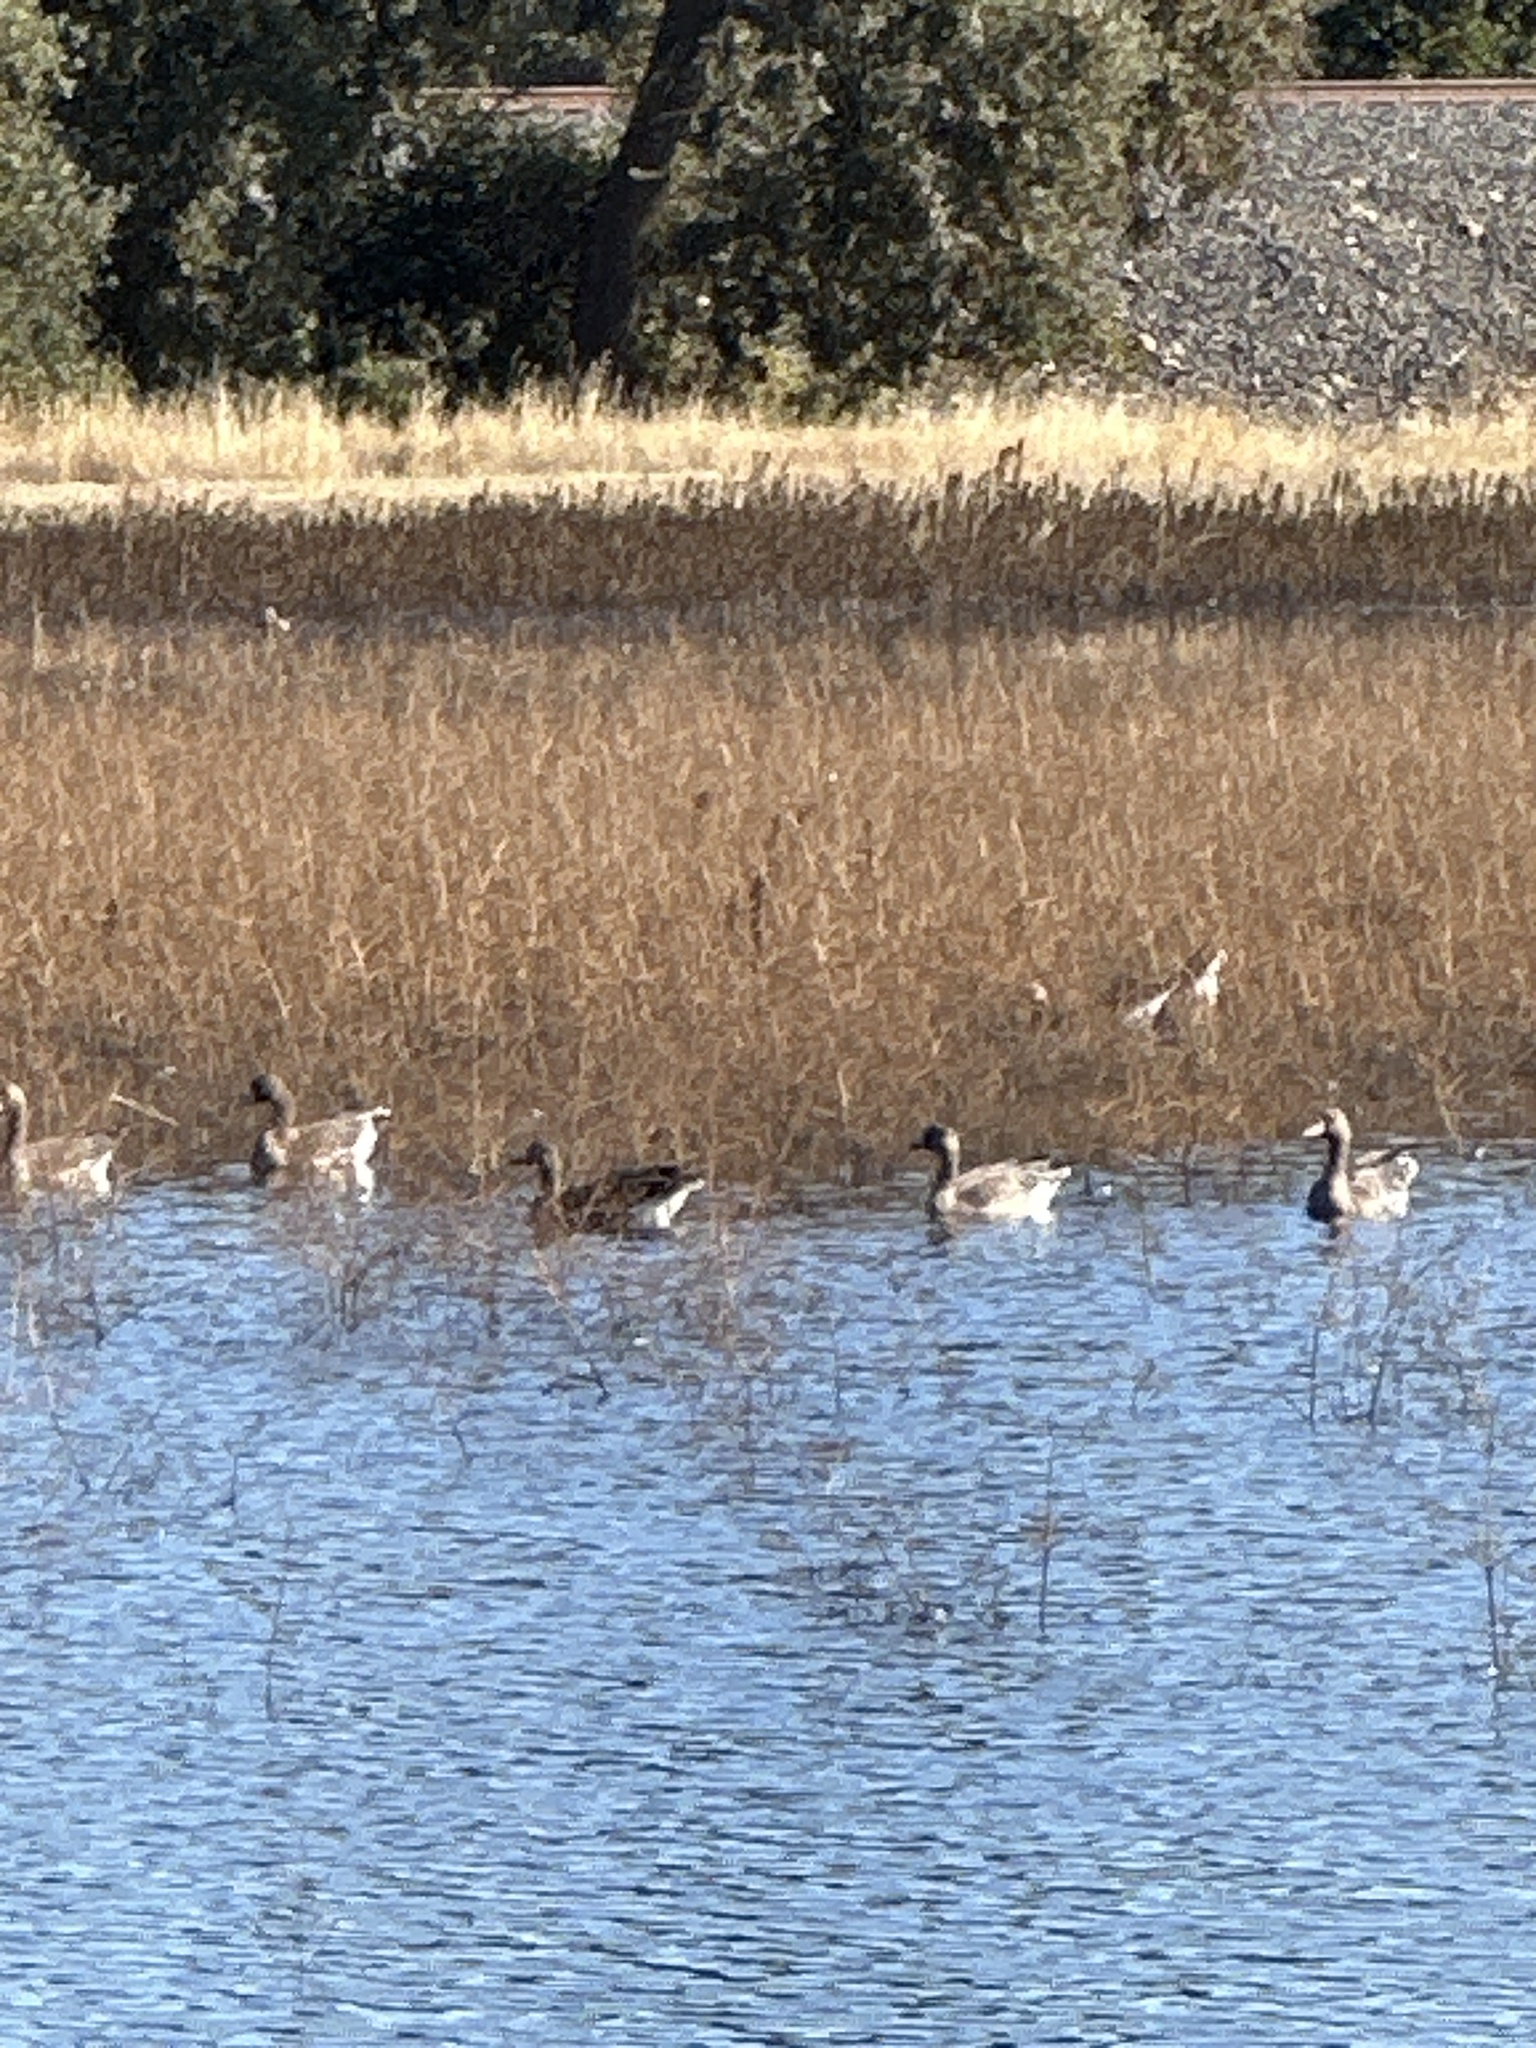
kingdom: Animalia
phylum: Chordata
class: Aves
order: Anseriformes
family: Anatidae
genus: Anser
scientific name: Anser albifrons
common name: Greater white-fronted goose
